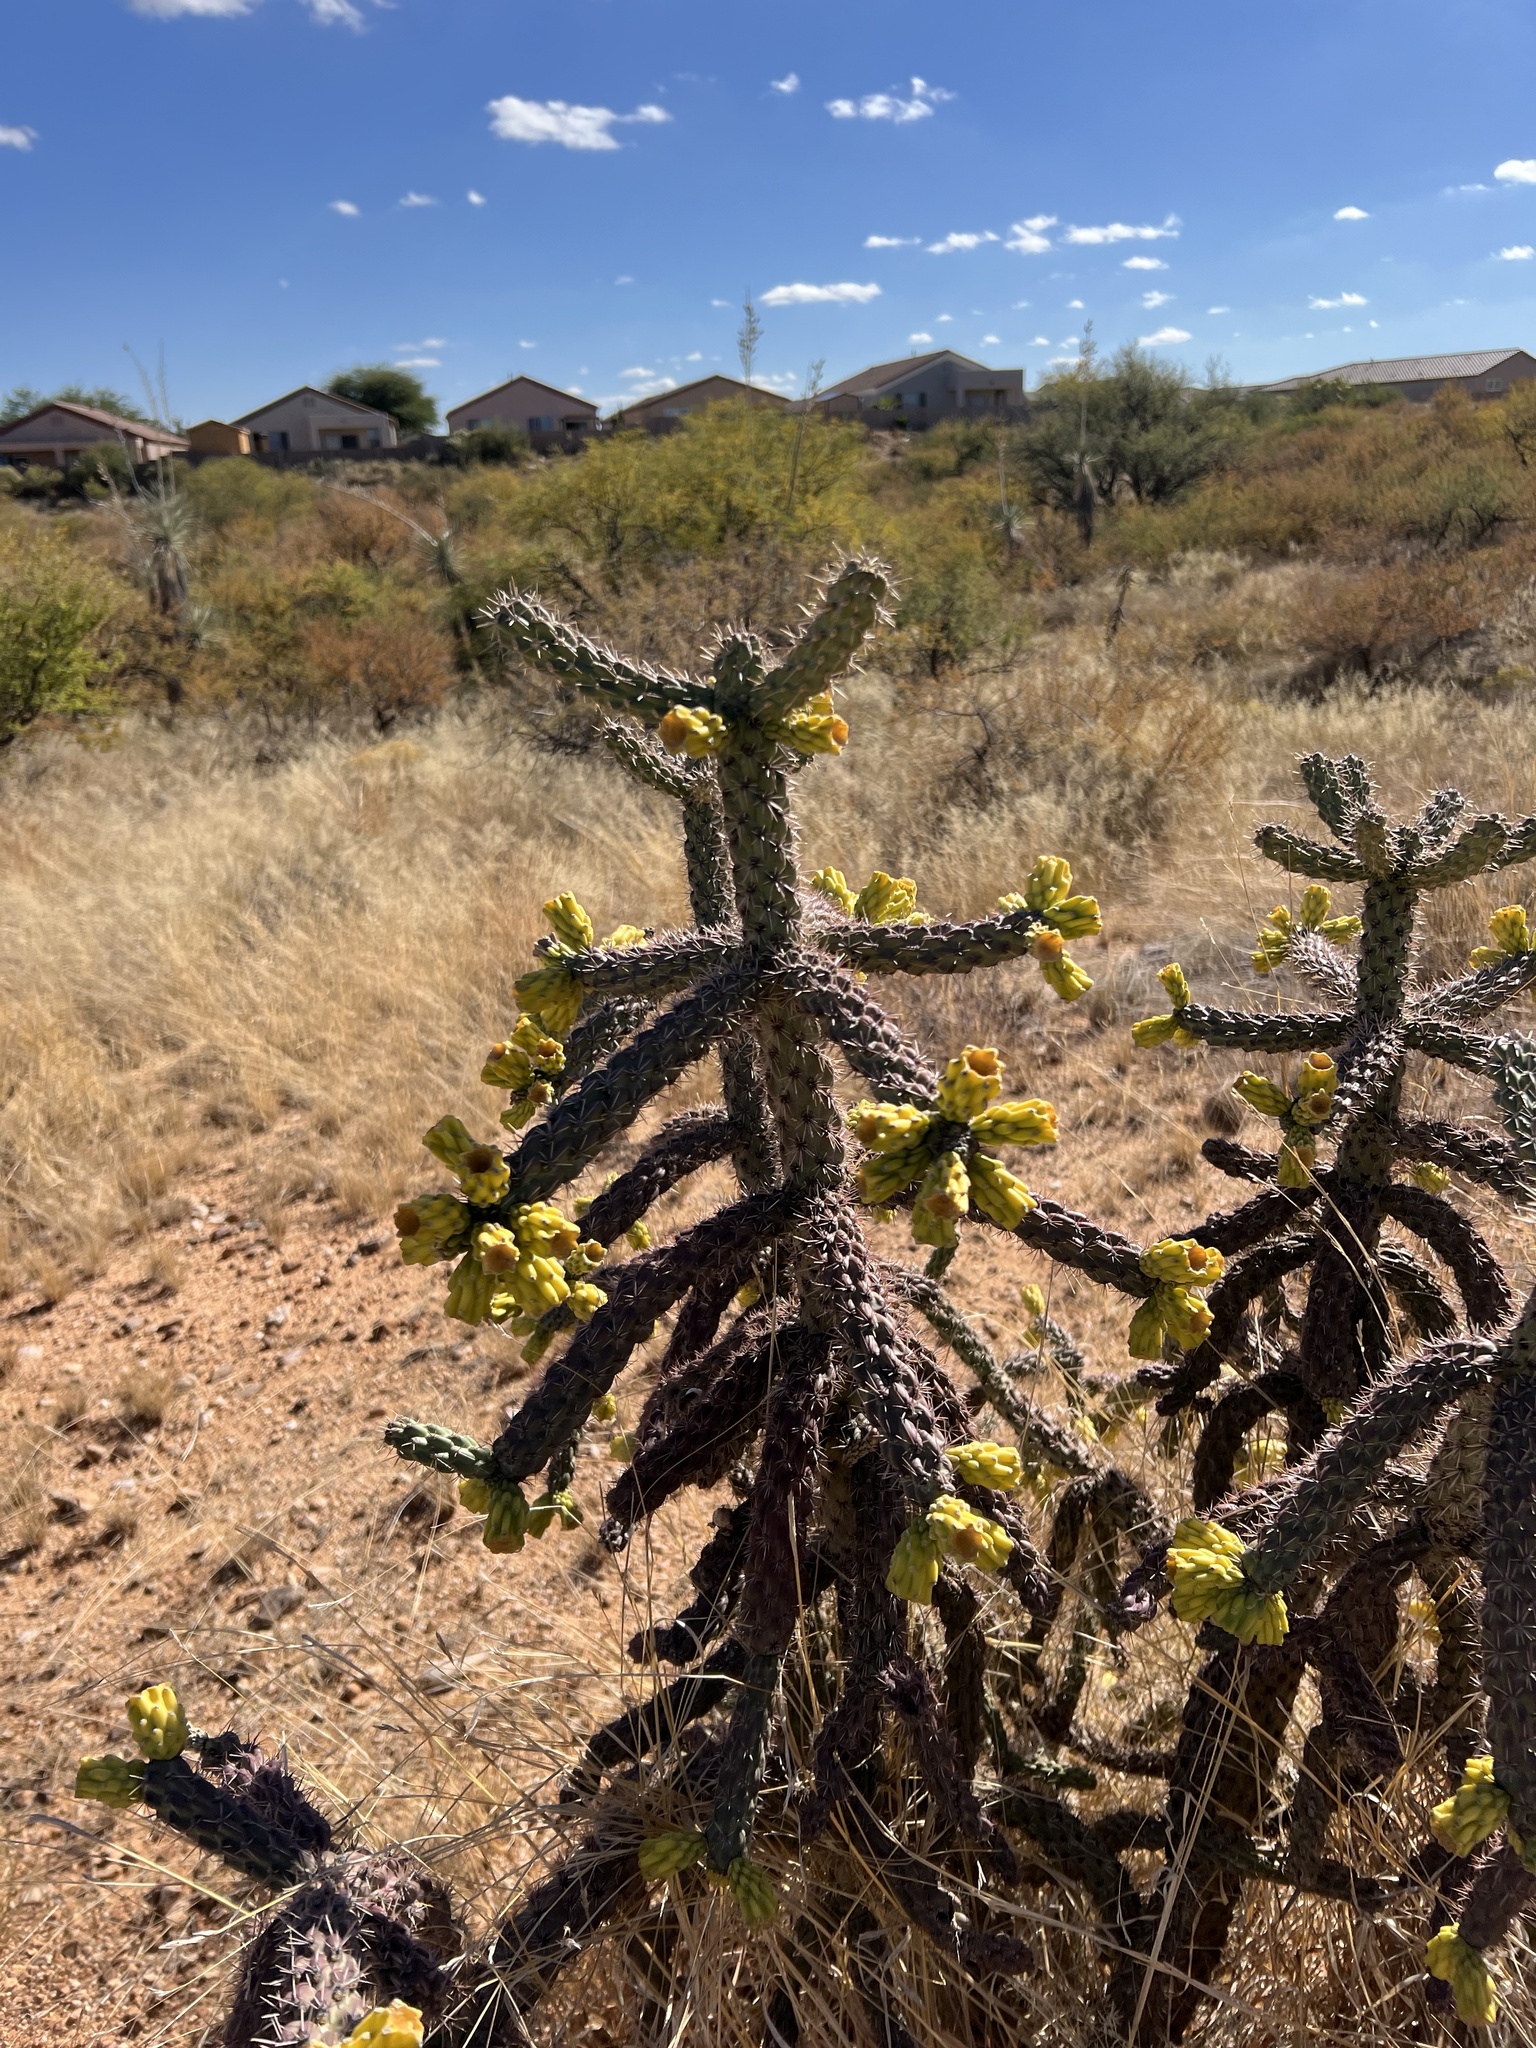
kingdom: Plantae
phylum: Tracheophyta
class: Magnoliopsida
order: Caryophyllales
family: Cactaceae
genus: Cylindropuntia
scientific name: Cylindropuntia imbricata
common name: Candelabrum cactus
